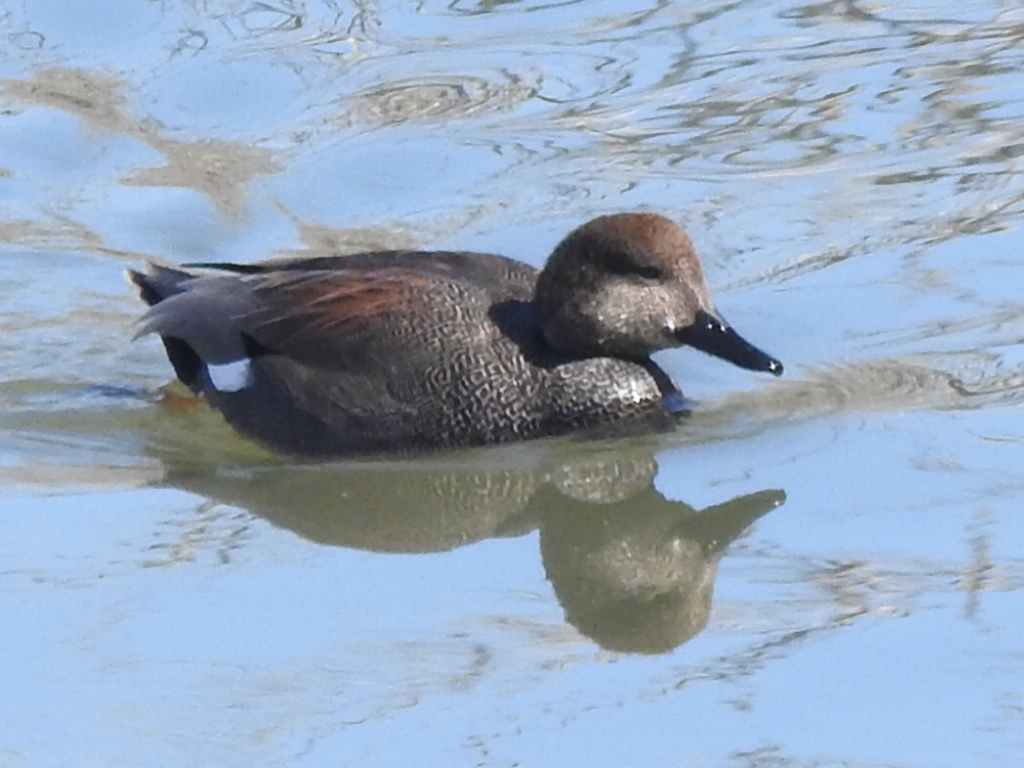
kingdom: Animalia
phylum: Chordata
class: Aves
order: Anseriformes
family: Anatidae
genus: Mareca
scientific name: Mareca strepera
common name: Gadwall
